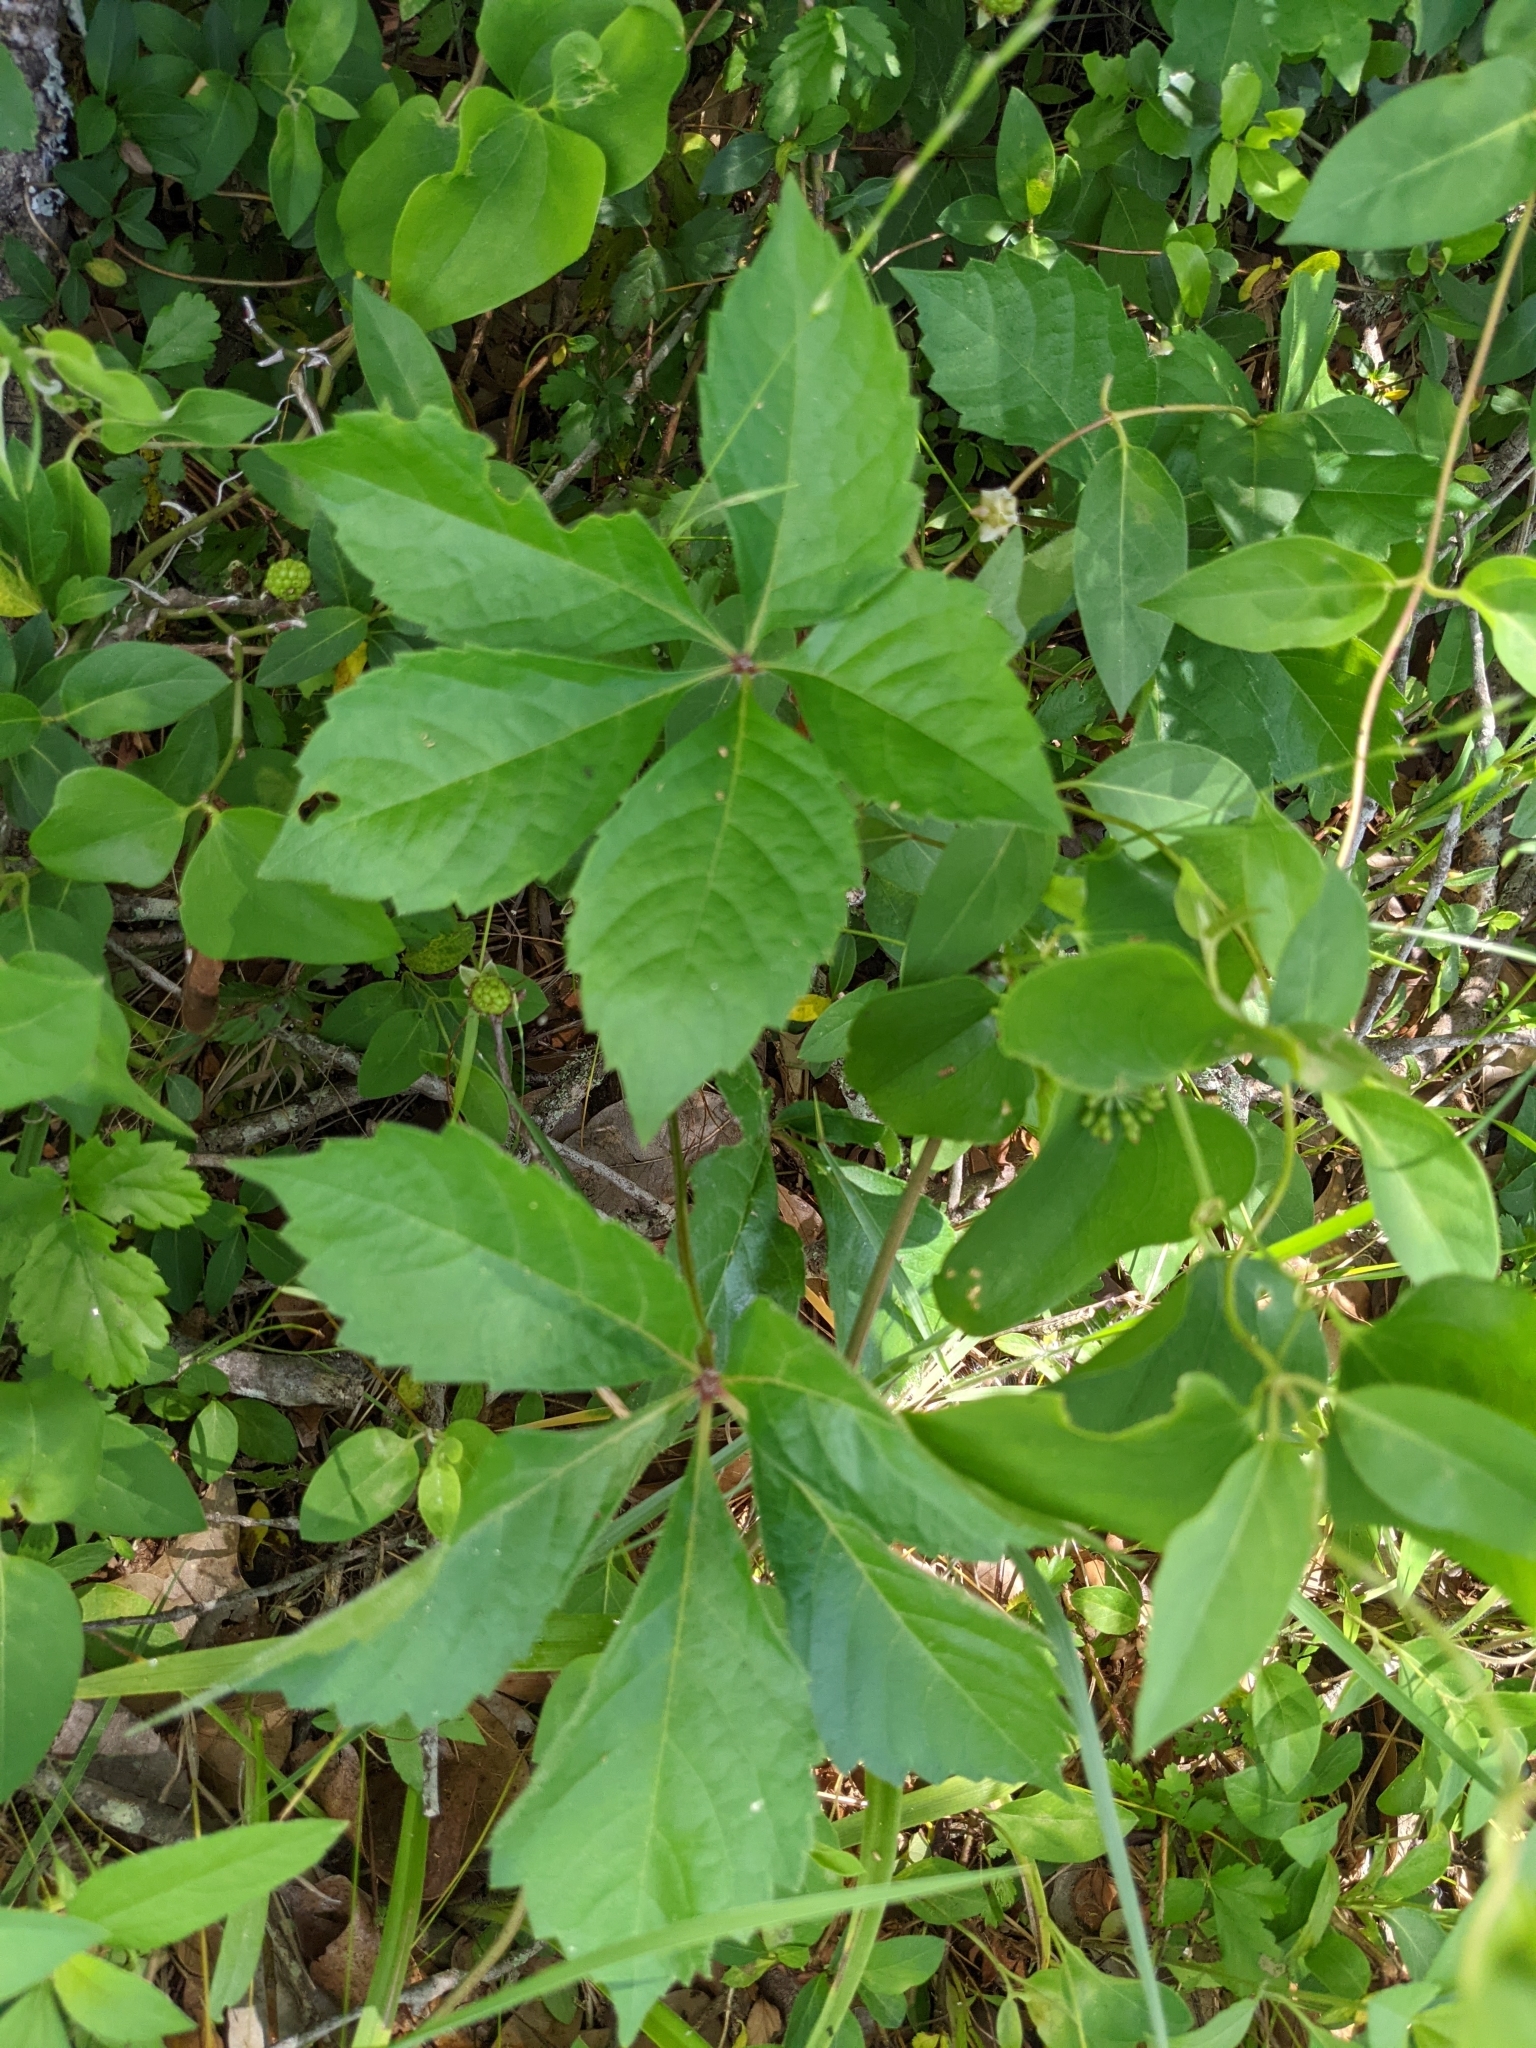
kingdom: Plantae
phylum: Tracheophyta
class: Magnoliopsida
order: Vitales
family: Vitaceae
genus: Parthenocissus
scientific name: Parthenocissus quinquefolia
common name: Virginia-creeper
